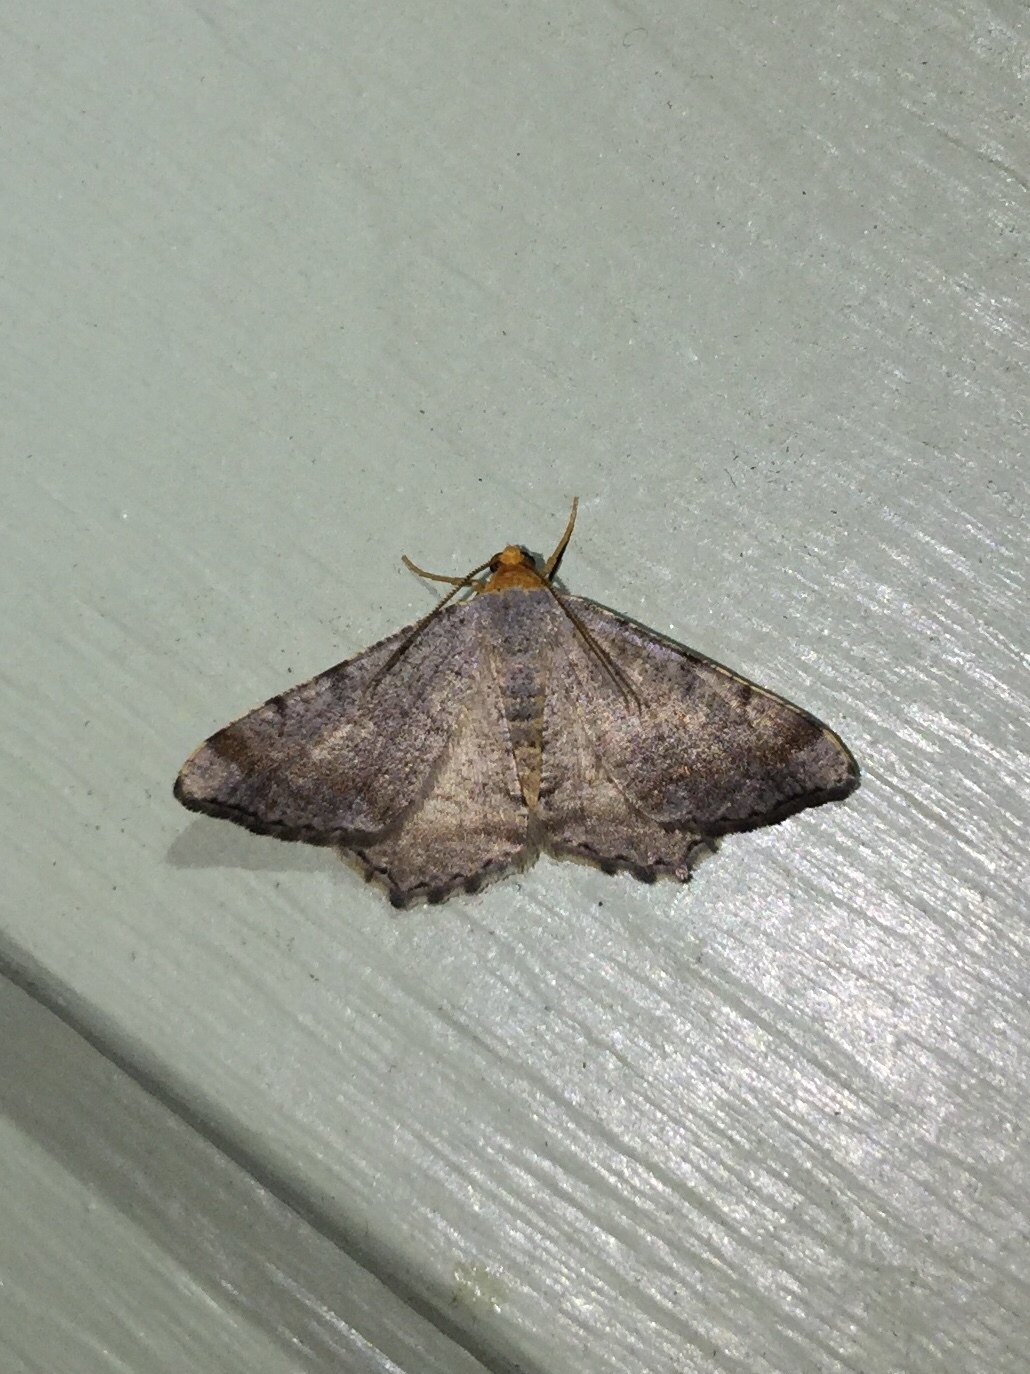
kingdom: Animalia
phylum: Arthropoda
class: Insecta
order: Lepidoptera
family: Geometridae
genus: Macaria
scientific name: Macaria minorata
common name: Minor angle moth
